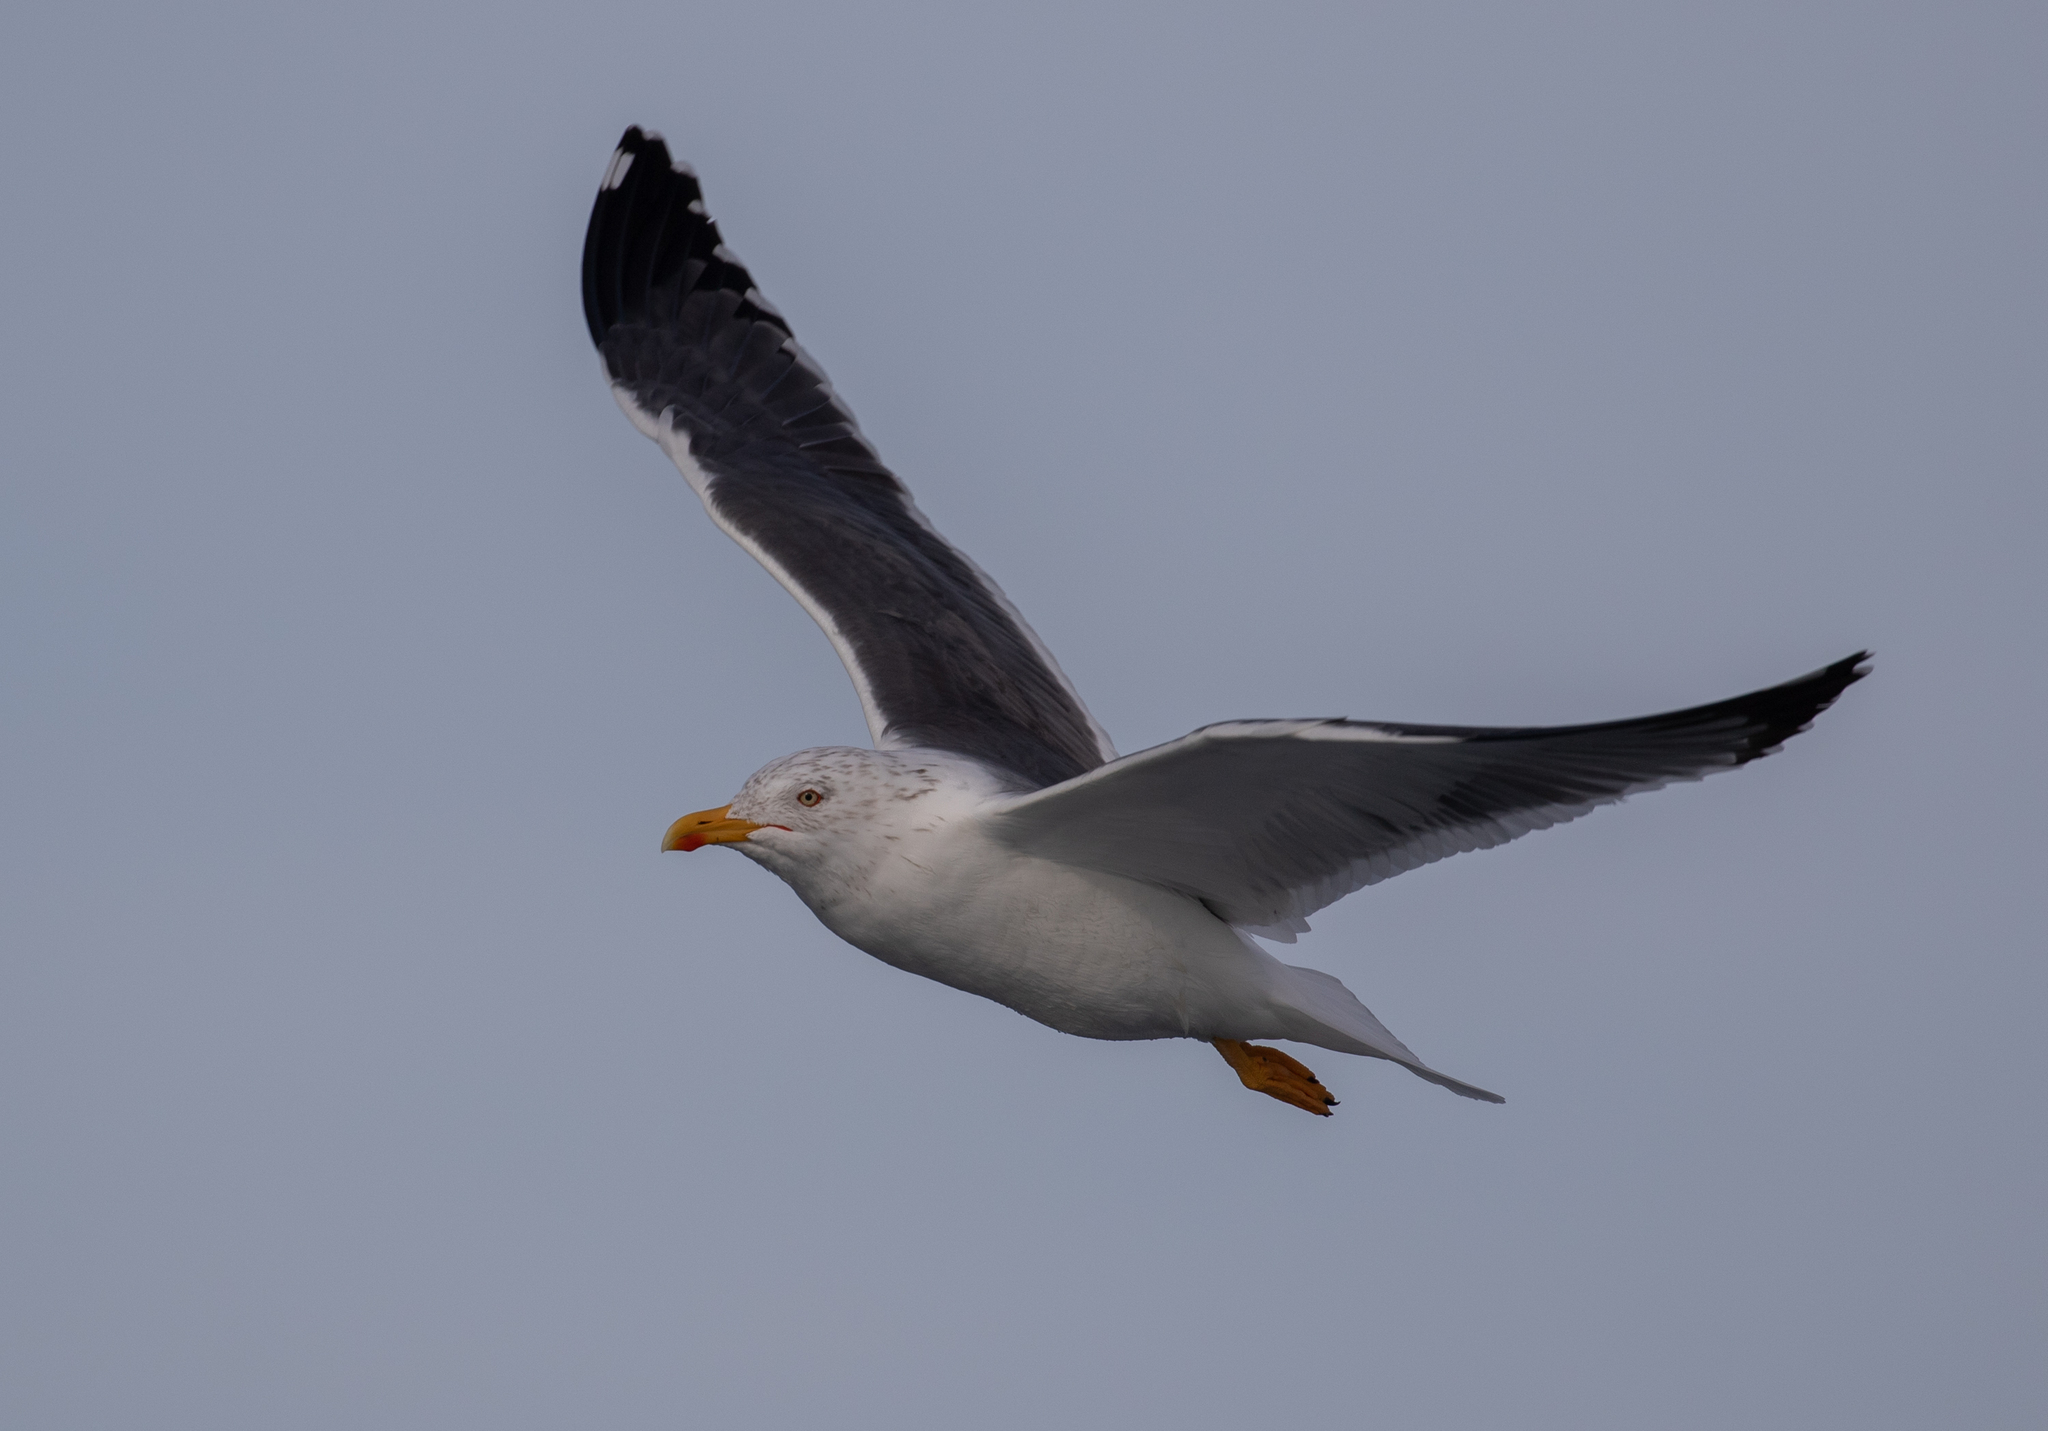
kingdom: Animalia
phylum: Chordata
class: Aves
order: Charadriiformes
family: Laridae
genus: Larus
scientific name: Larus fuscus
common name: Lesser black-backed gull
